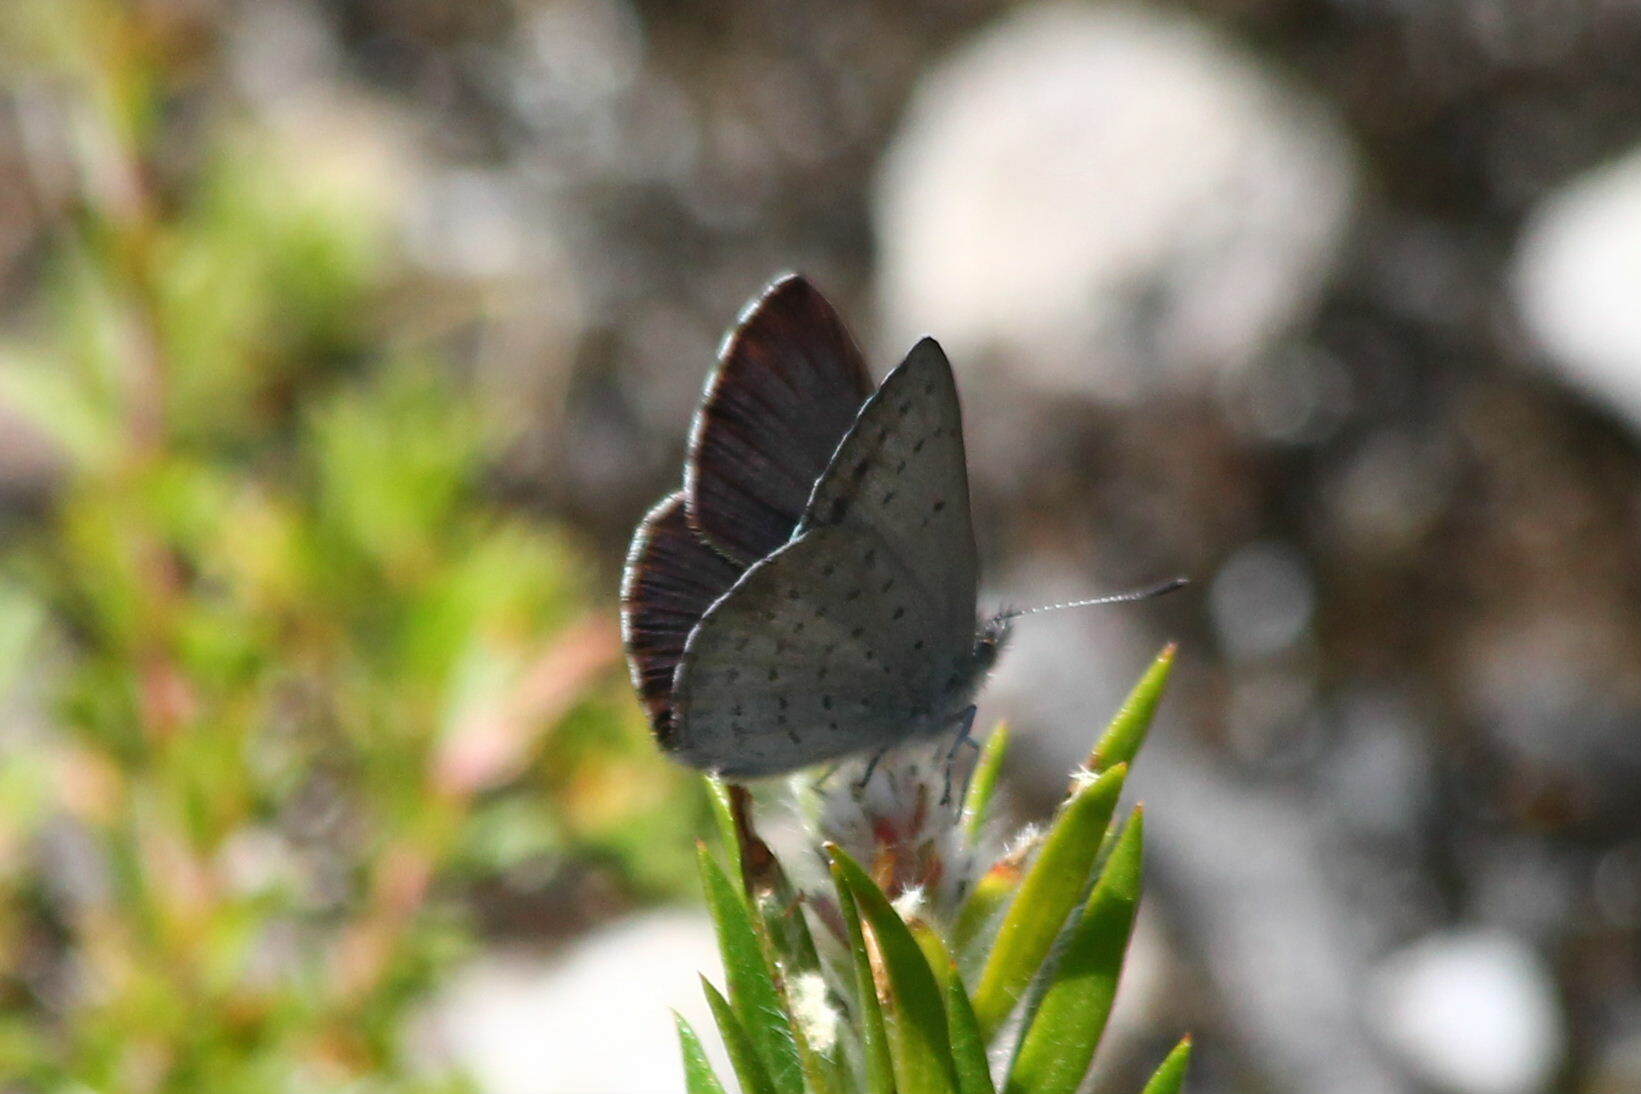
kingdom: Animalia
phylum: Arthropoda
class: Insecta
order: Lepidoptera
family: Lycaenidae
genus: Candalides
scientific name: Candalides
